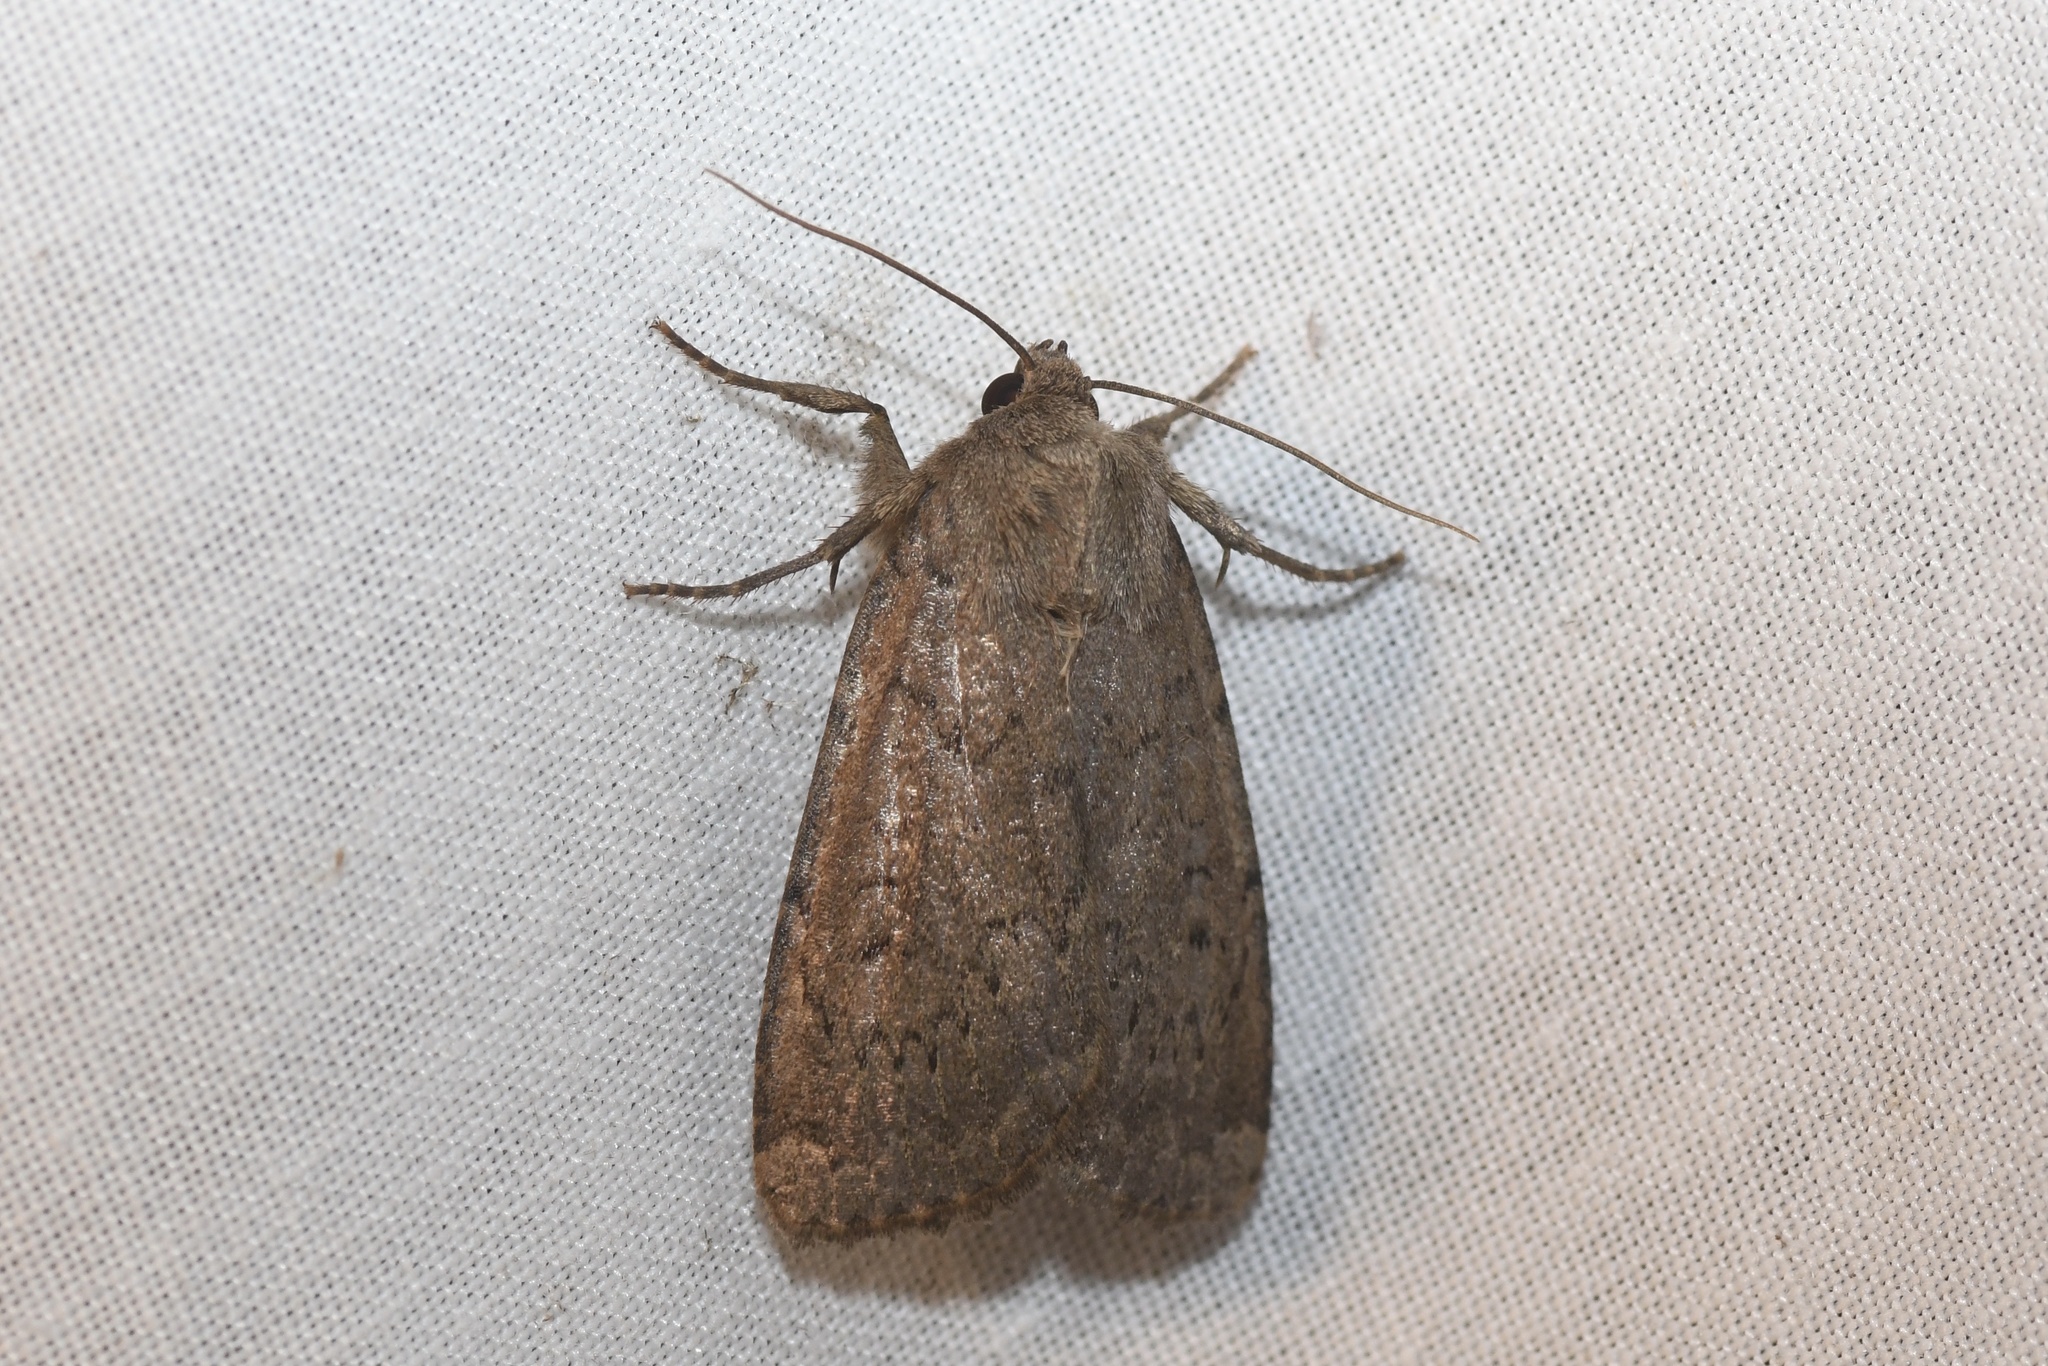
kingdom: Animalia
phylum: Arthropoda
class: Insecta
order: Lepidoptera
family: Noctuidae
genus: Graphiphora
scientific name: Graphiphora augur
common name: Double dart
